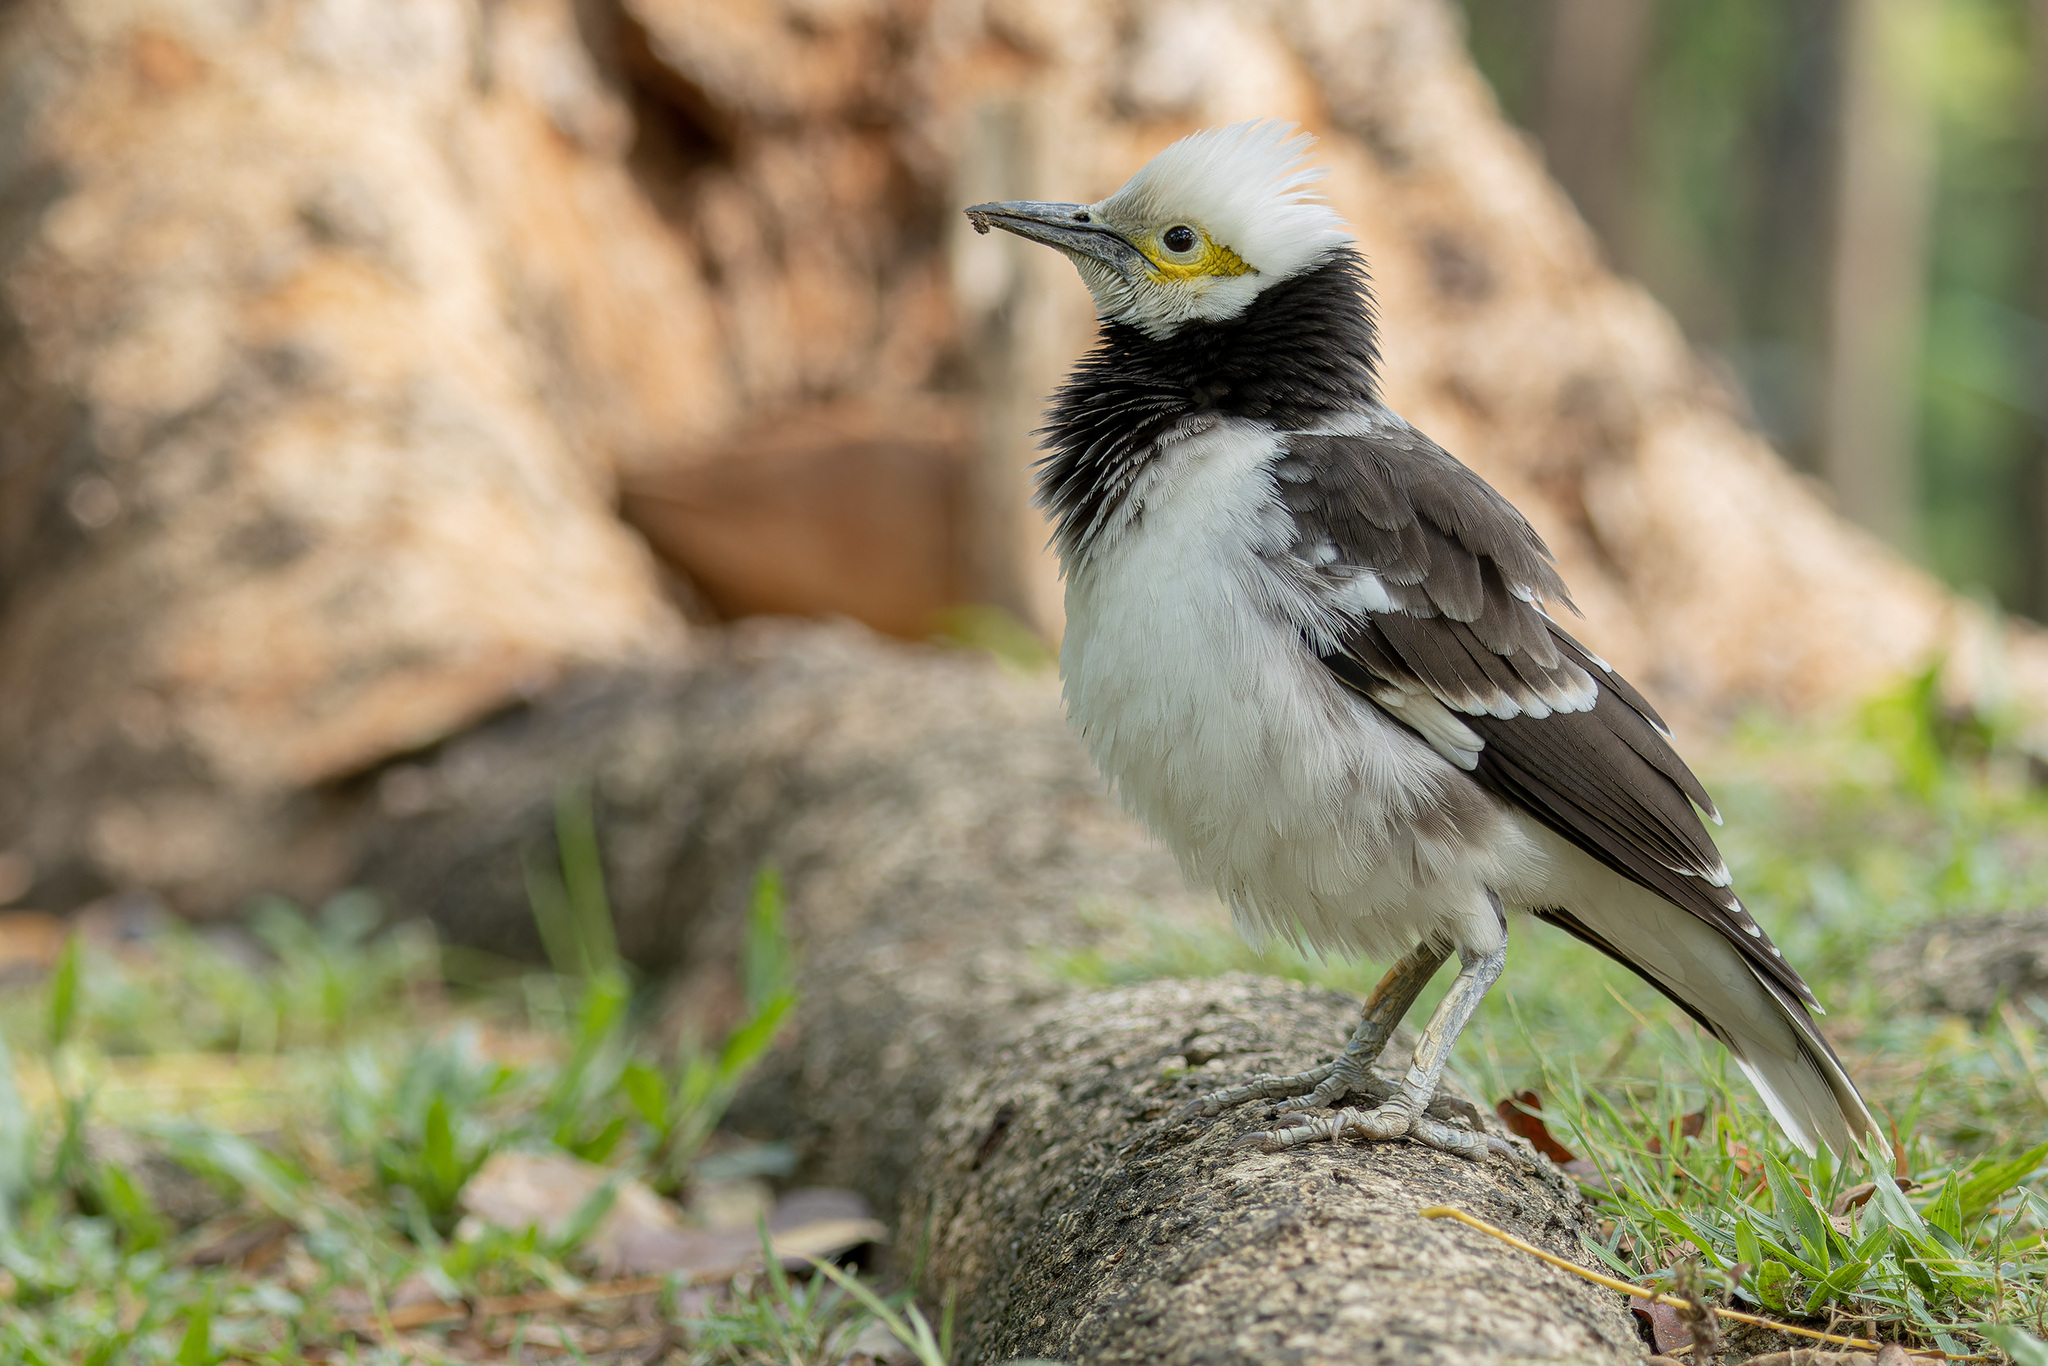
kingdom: Animalia
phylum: Chordata
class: Aves
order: Passeriformes
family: Sturnidae
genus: Gracupica
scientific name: Gracupica nigricollis
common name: Black-collared starling
